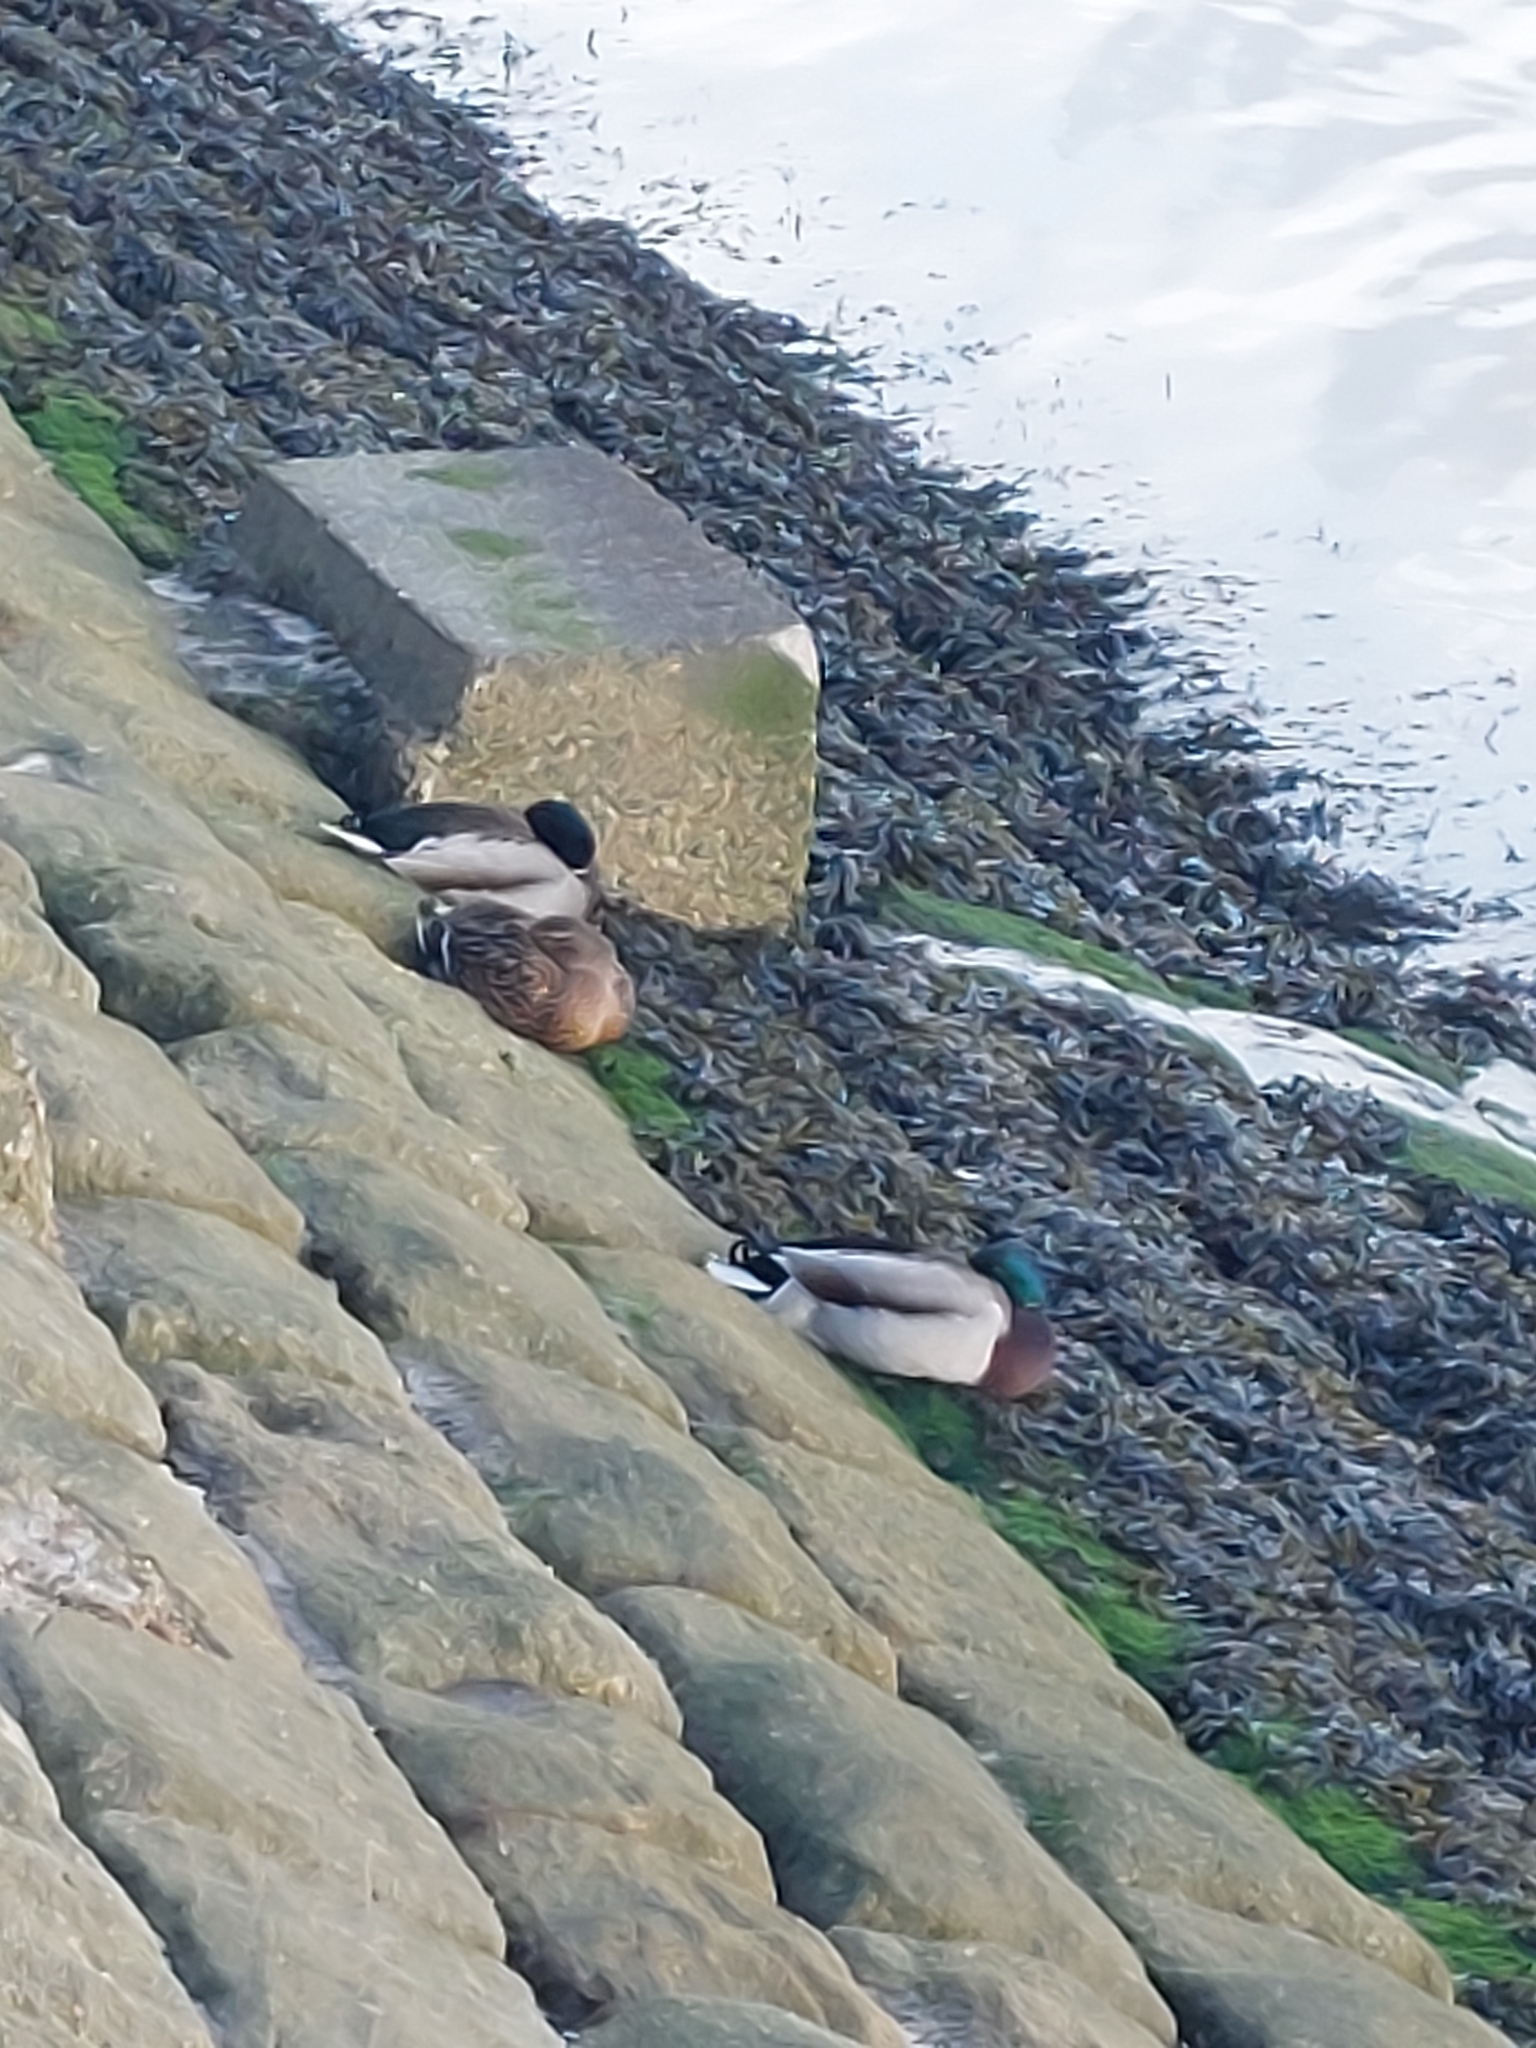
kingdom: Animalia
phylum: Chordata
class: Aves
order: Anseriformes
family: Anatidae
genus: Anas
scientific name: Anas platyrhynchos
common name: Mallard
